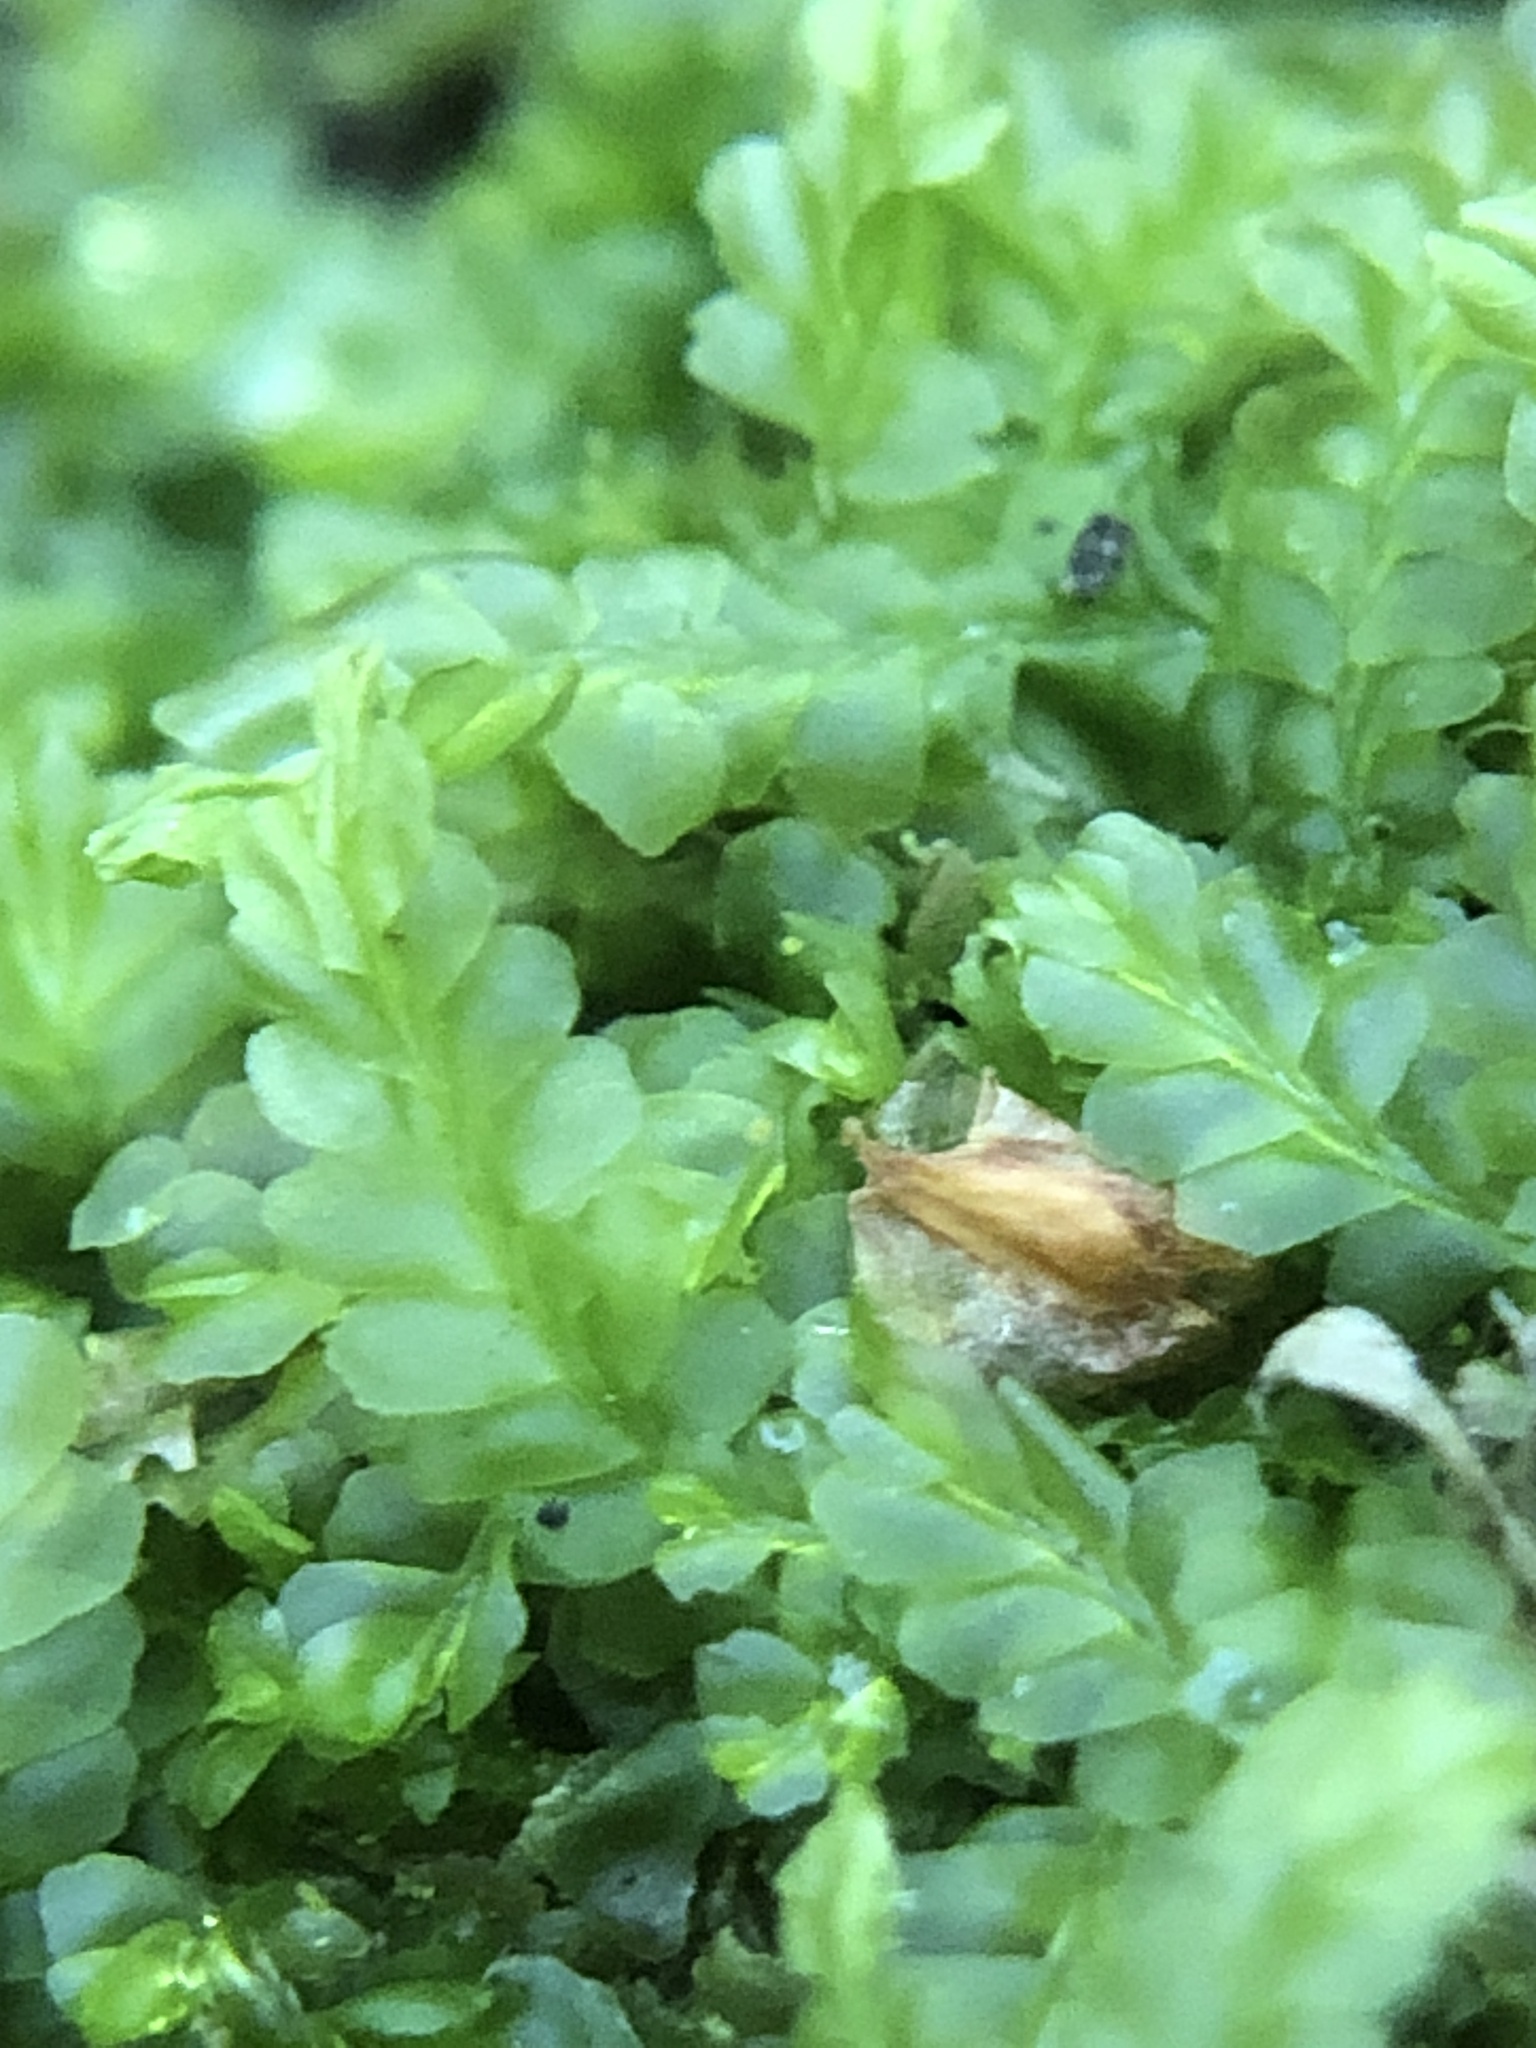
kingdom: Plantae
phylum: Marchantiophyta
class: Jungermanniopsida
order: Jungermanniales
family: Lophocoleaceae
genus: Lophocolea
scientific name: Lophocolea semiteres
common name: Southern crestwort
